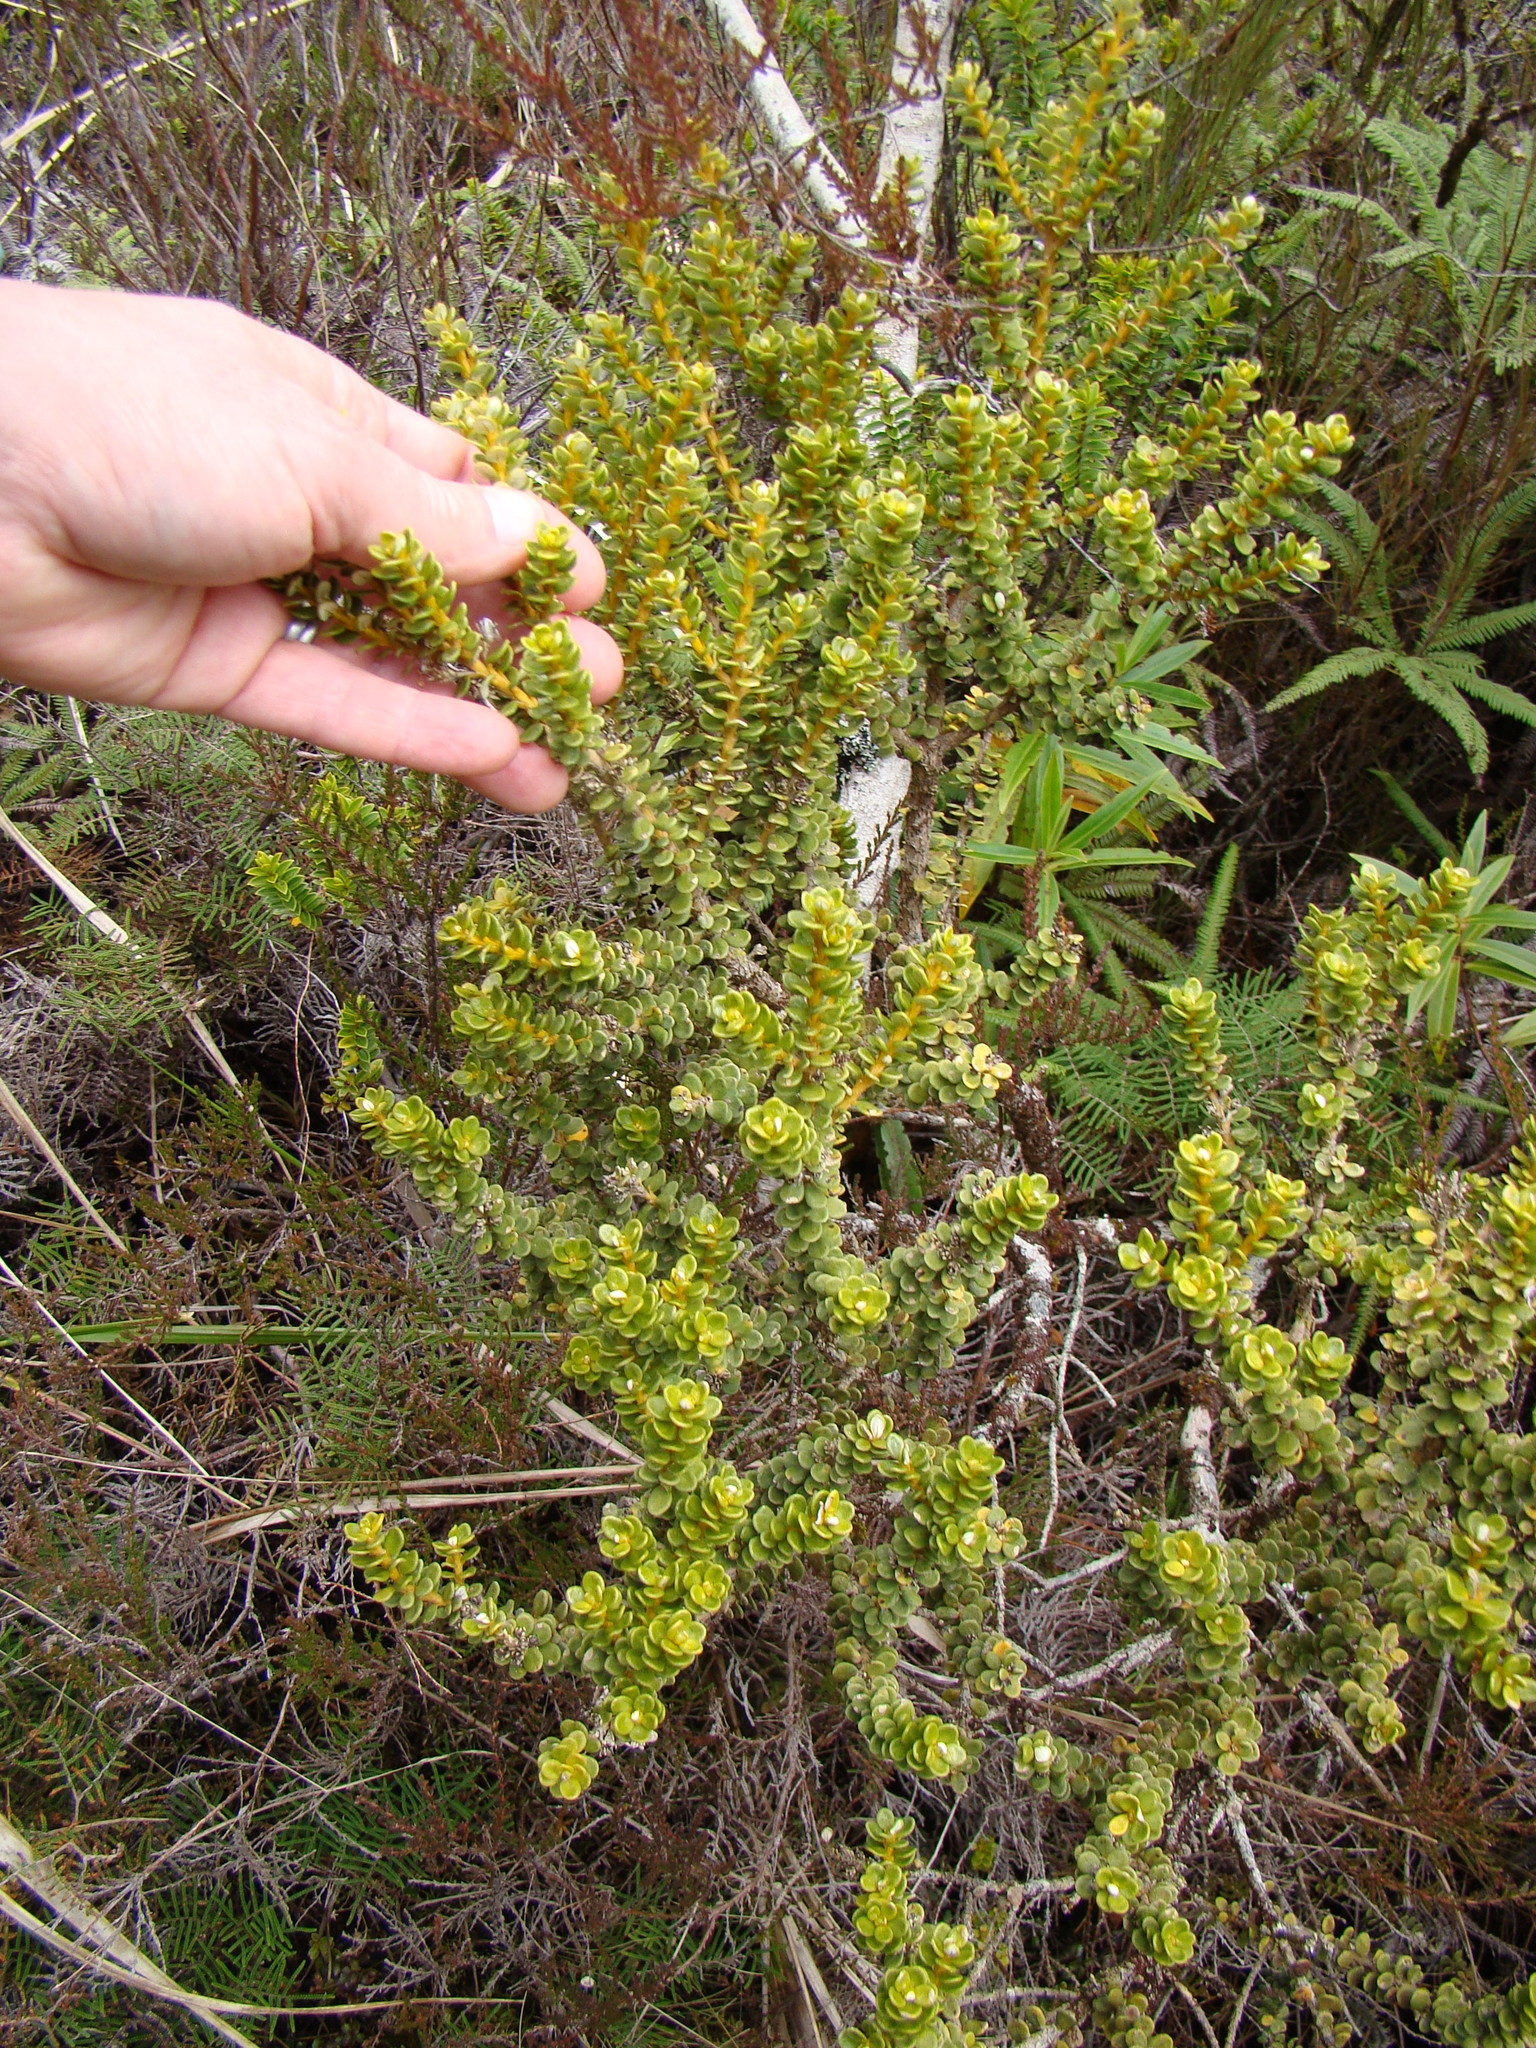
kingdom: Plantae
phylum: Tracheophyta
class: Magnoliopsida
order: Asterales
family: Asteraceae
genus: Olearia
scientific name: Olearia nummularifolia
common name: Sticky daisybush
